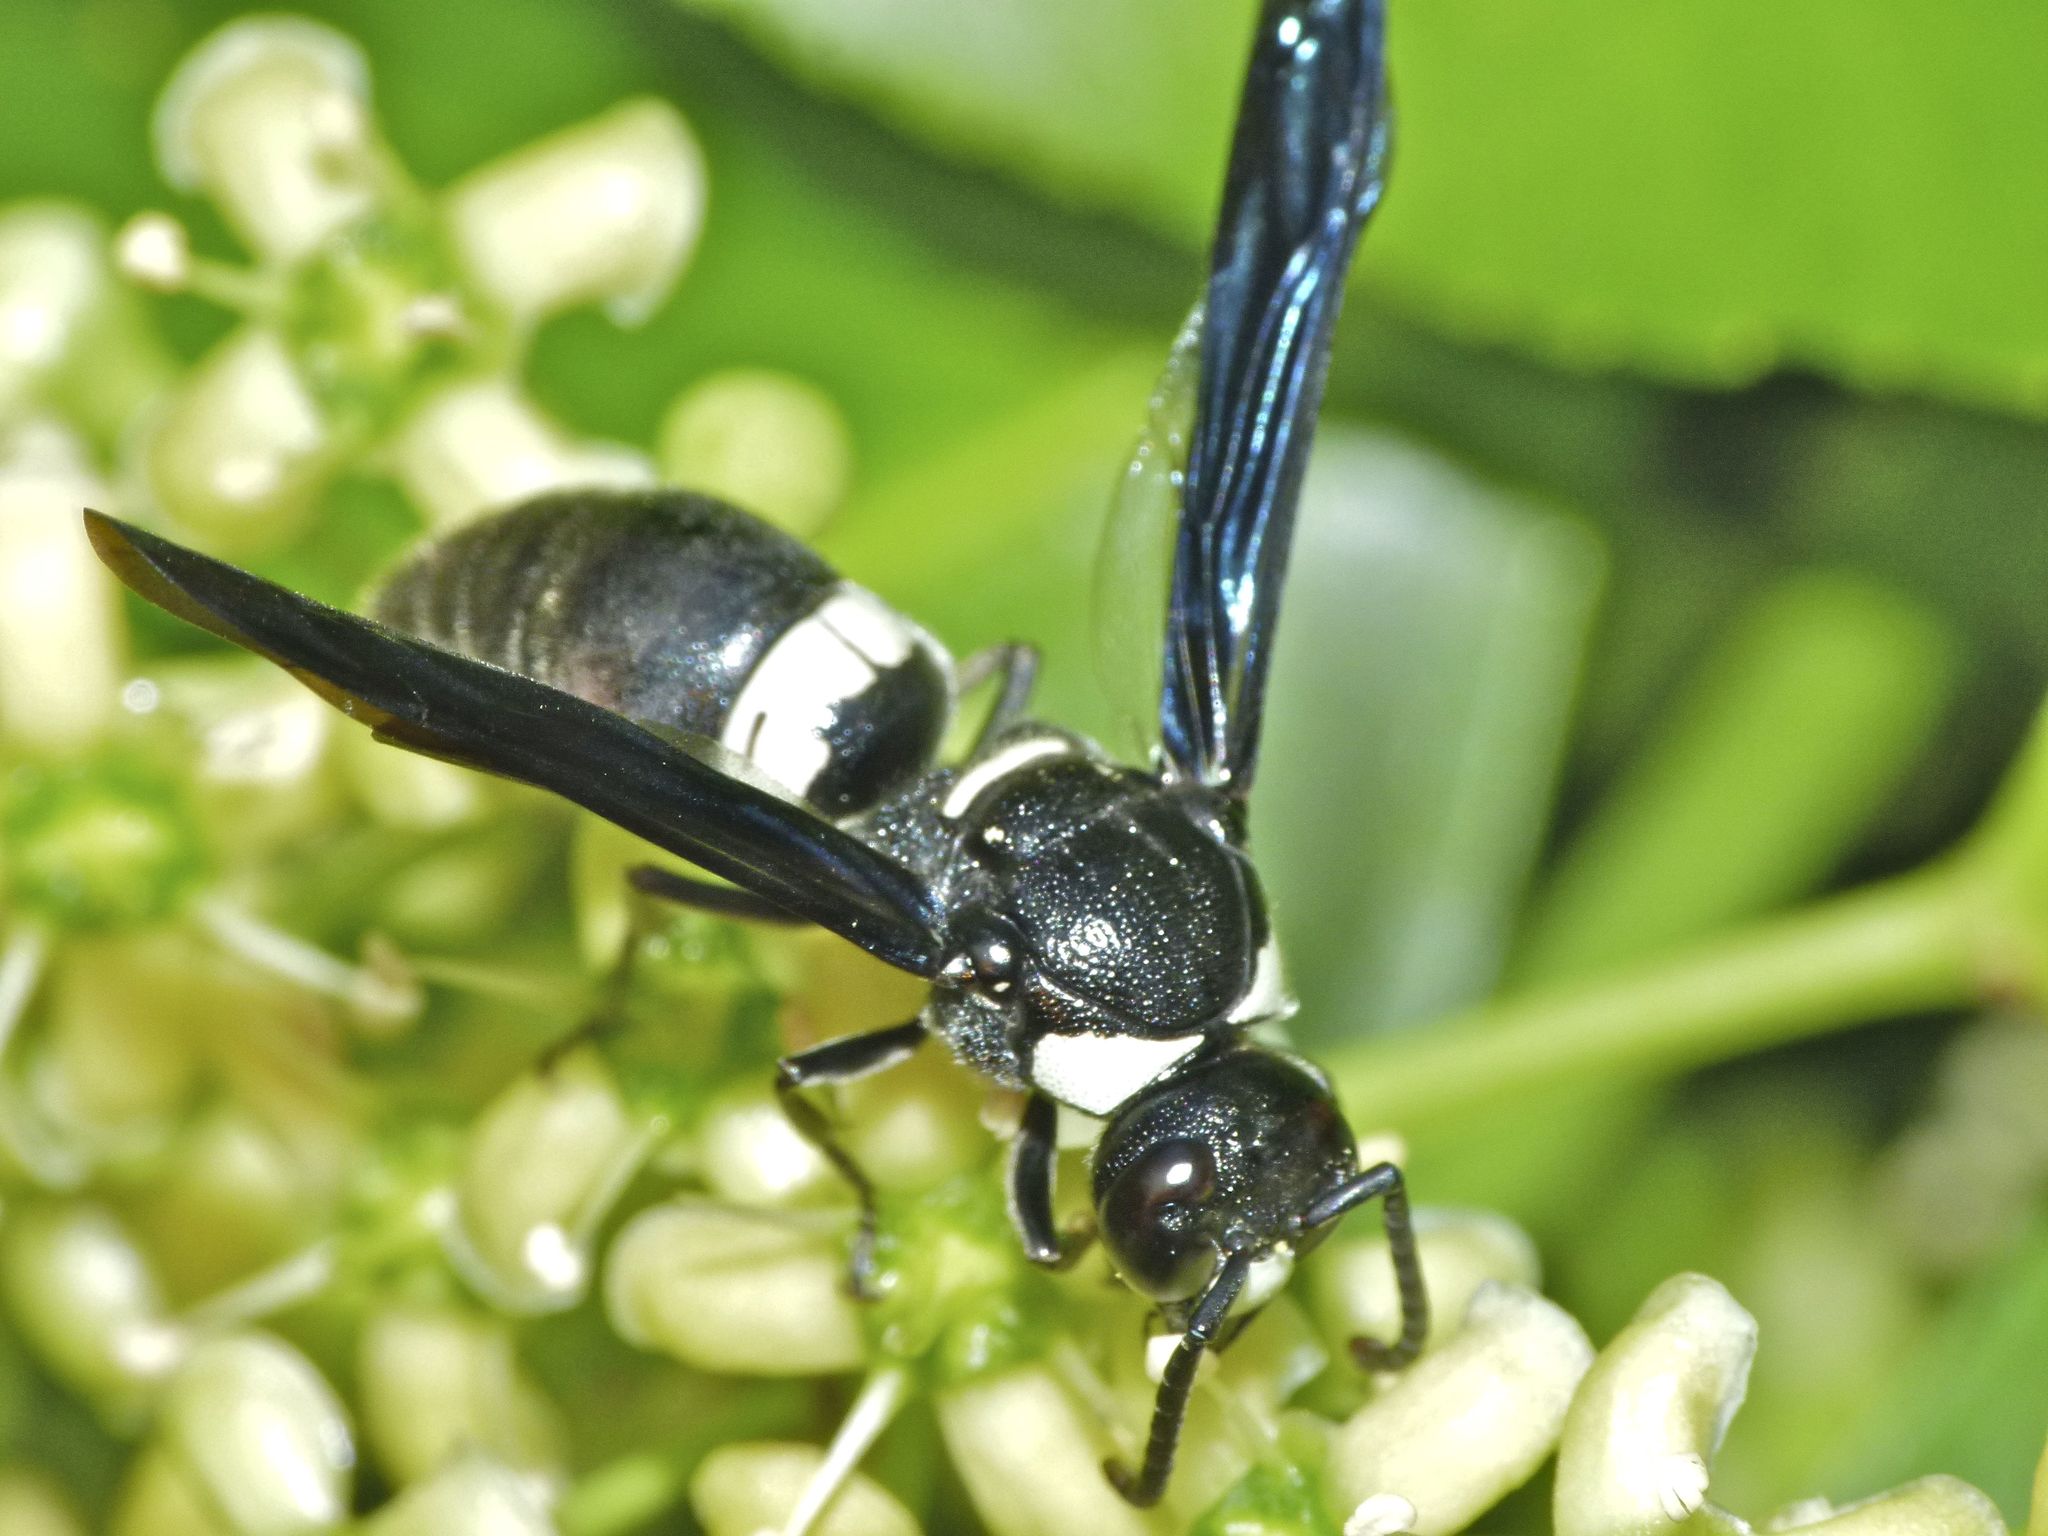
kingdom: Animalia
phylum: Arthropoda
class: Insecta
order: Hymenoptera
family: Eumenidae
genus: Monobia
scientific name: Monobia quadridens
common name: Four-toothed mason wasp
